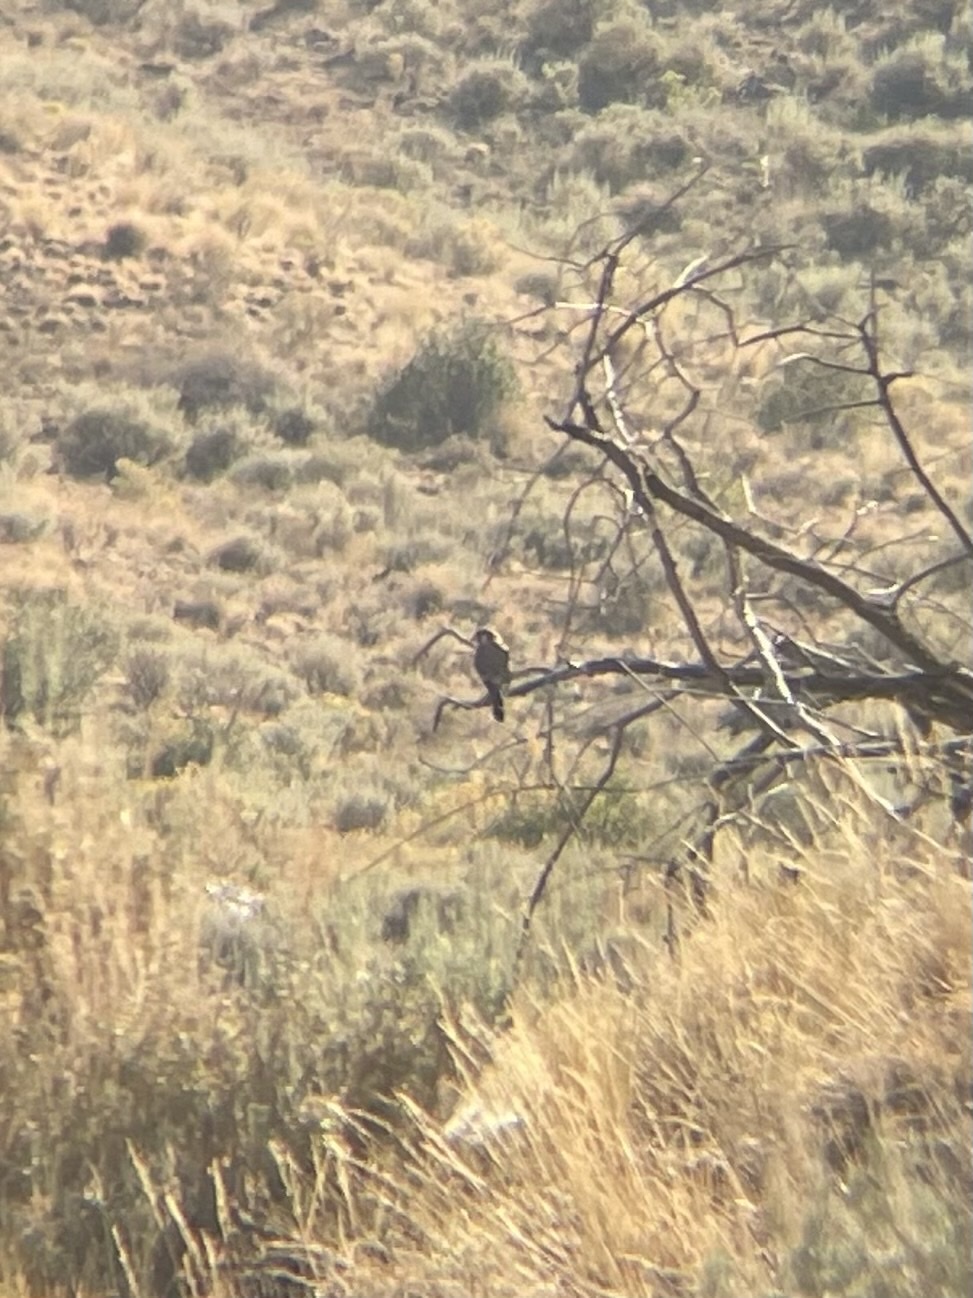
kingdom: Animalia
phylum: Chordata
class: Aves
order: Falconiformes
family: Falconidae
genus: Falco
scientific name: Falco sparverius
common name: American kestrel
